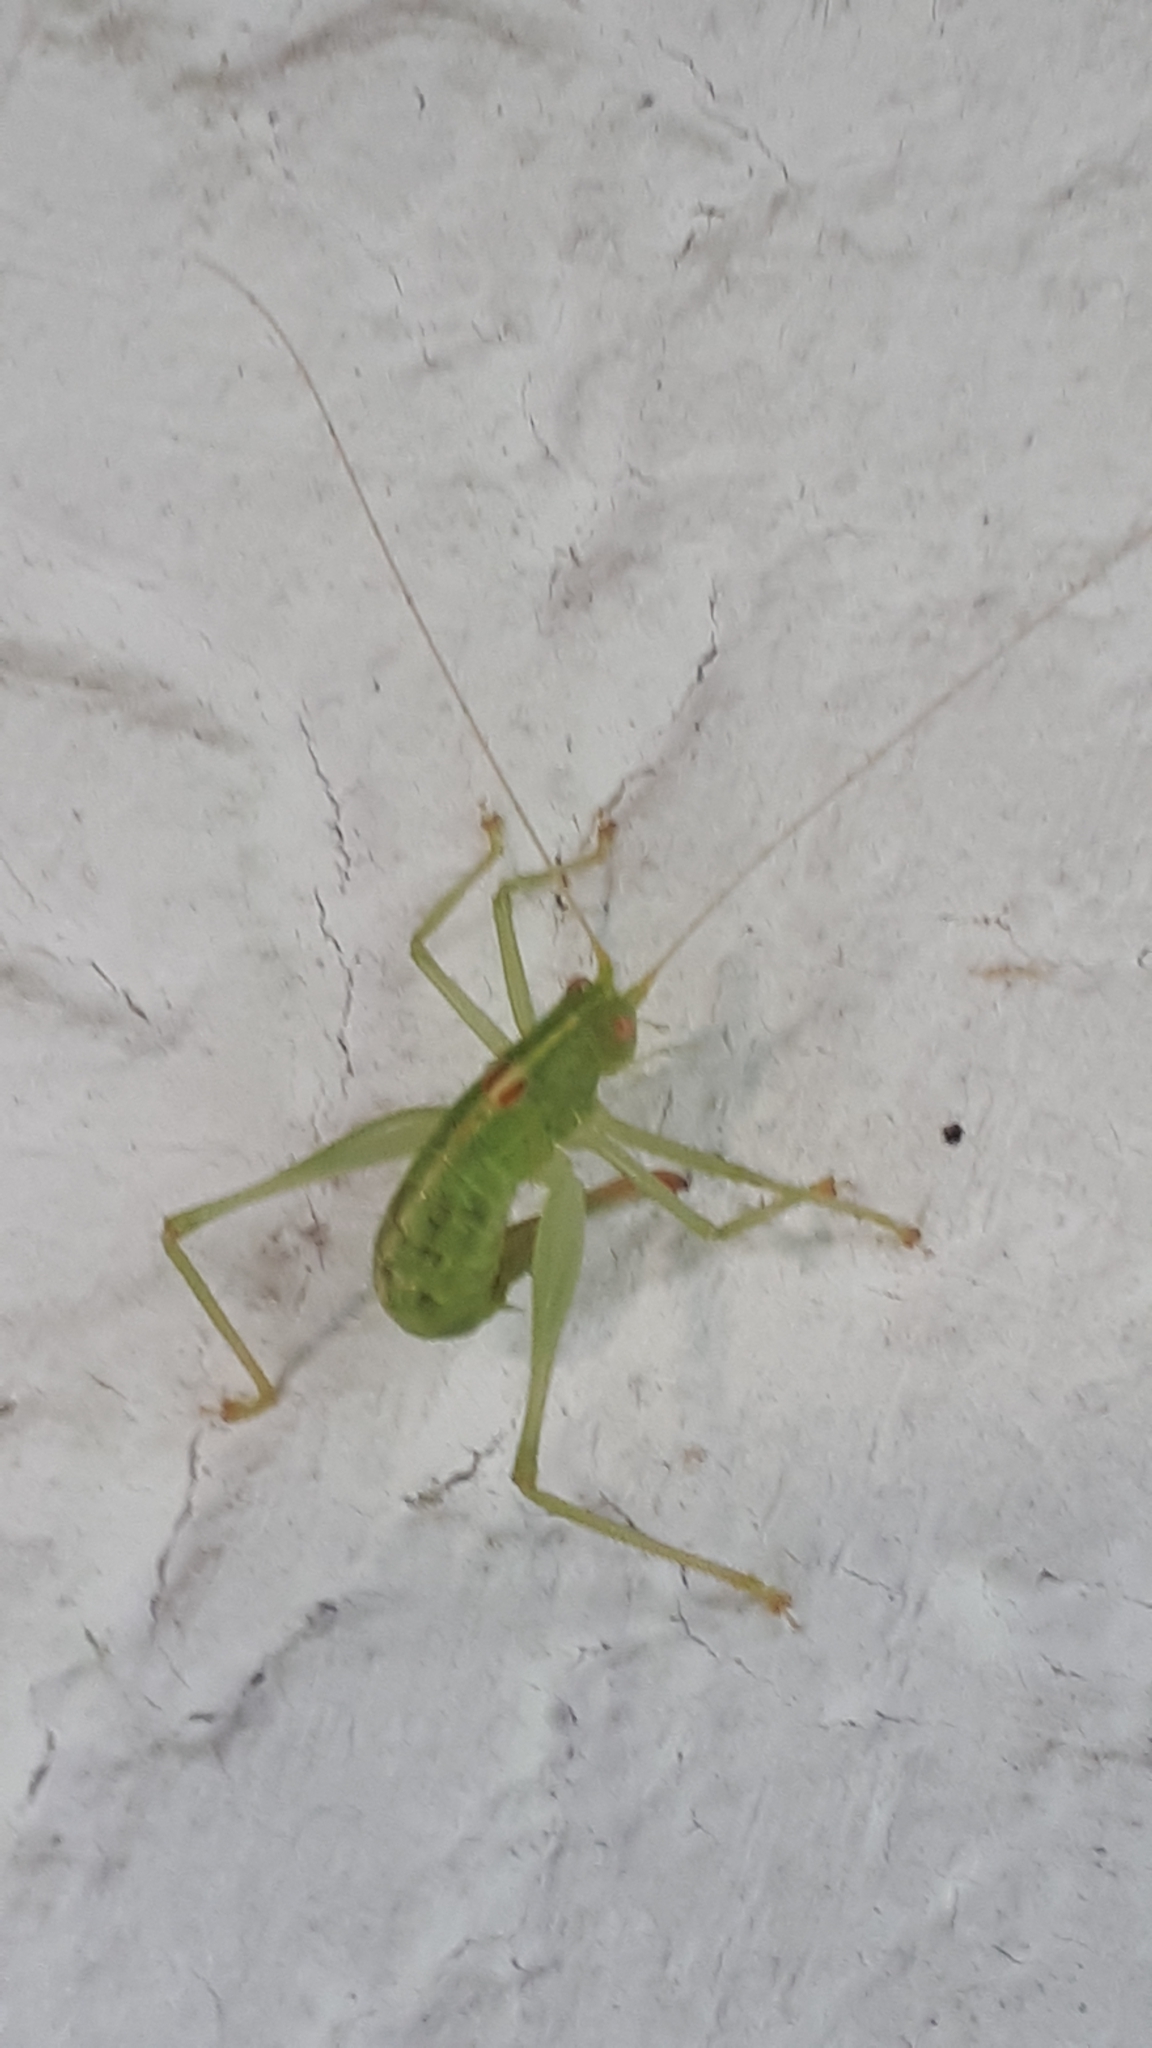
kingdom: Animalia
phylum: Arthropoda
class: Insecta
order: Orthoptera
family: Tettigoniidae
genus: Meconema
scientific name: Meconema meridionale
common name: Southern oak bush-cricket
